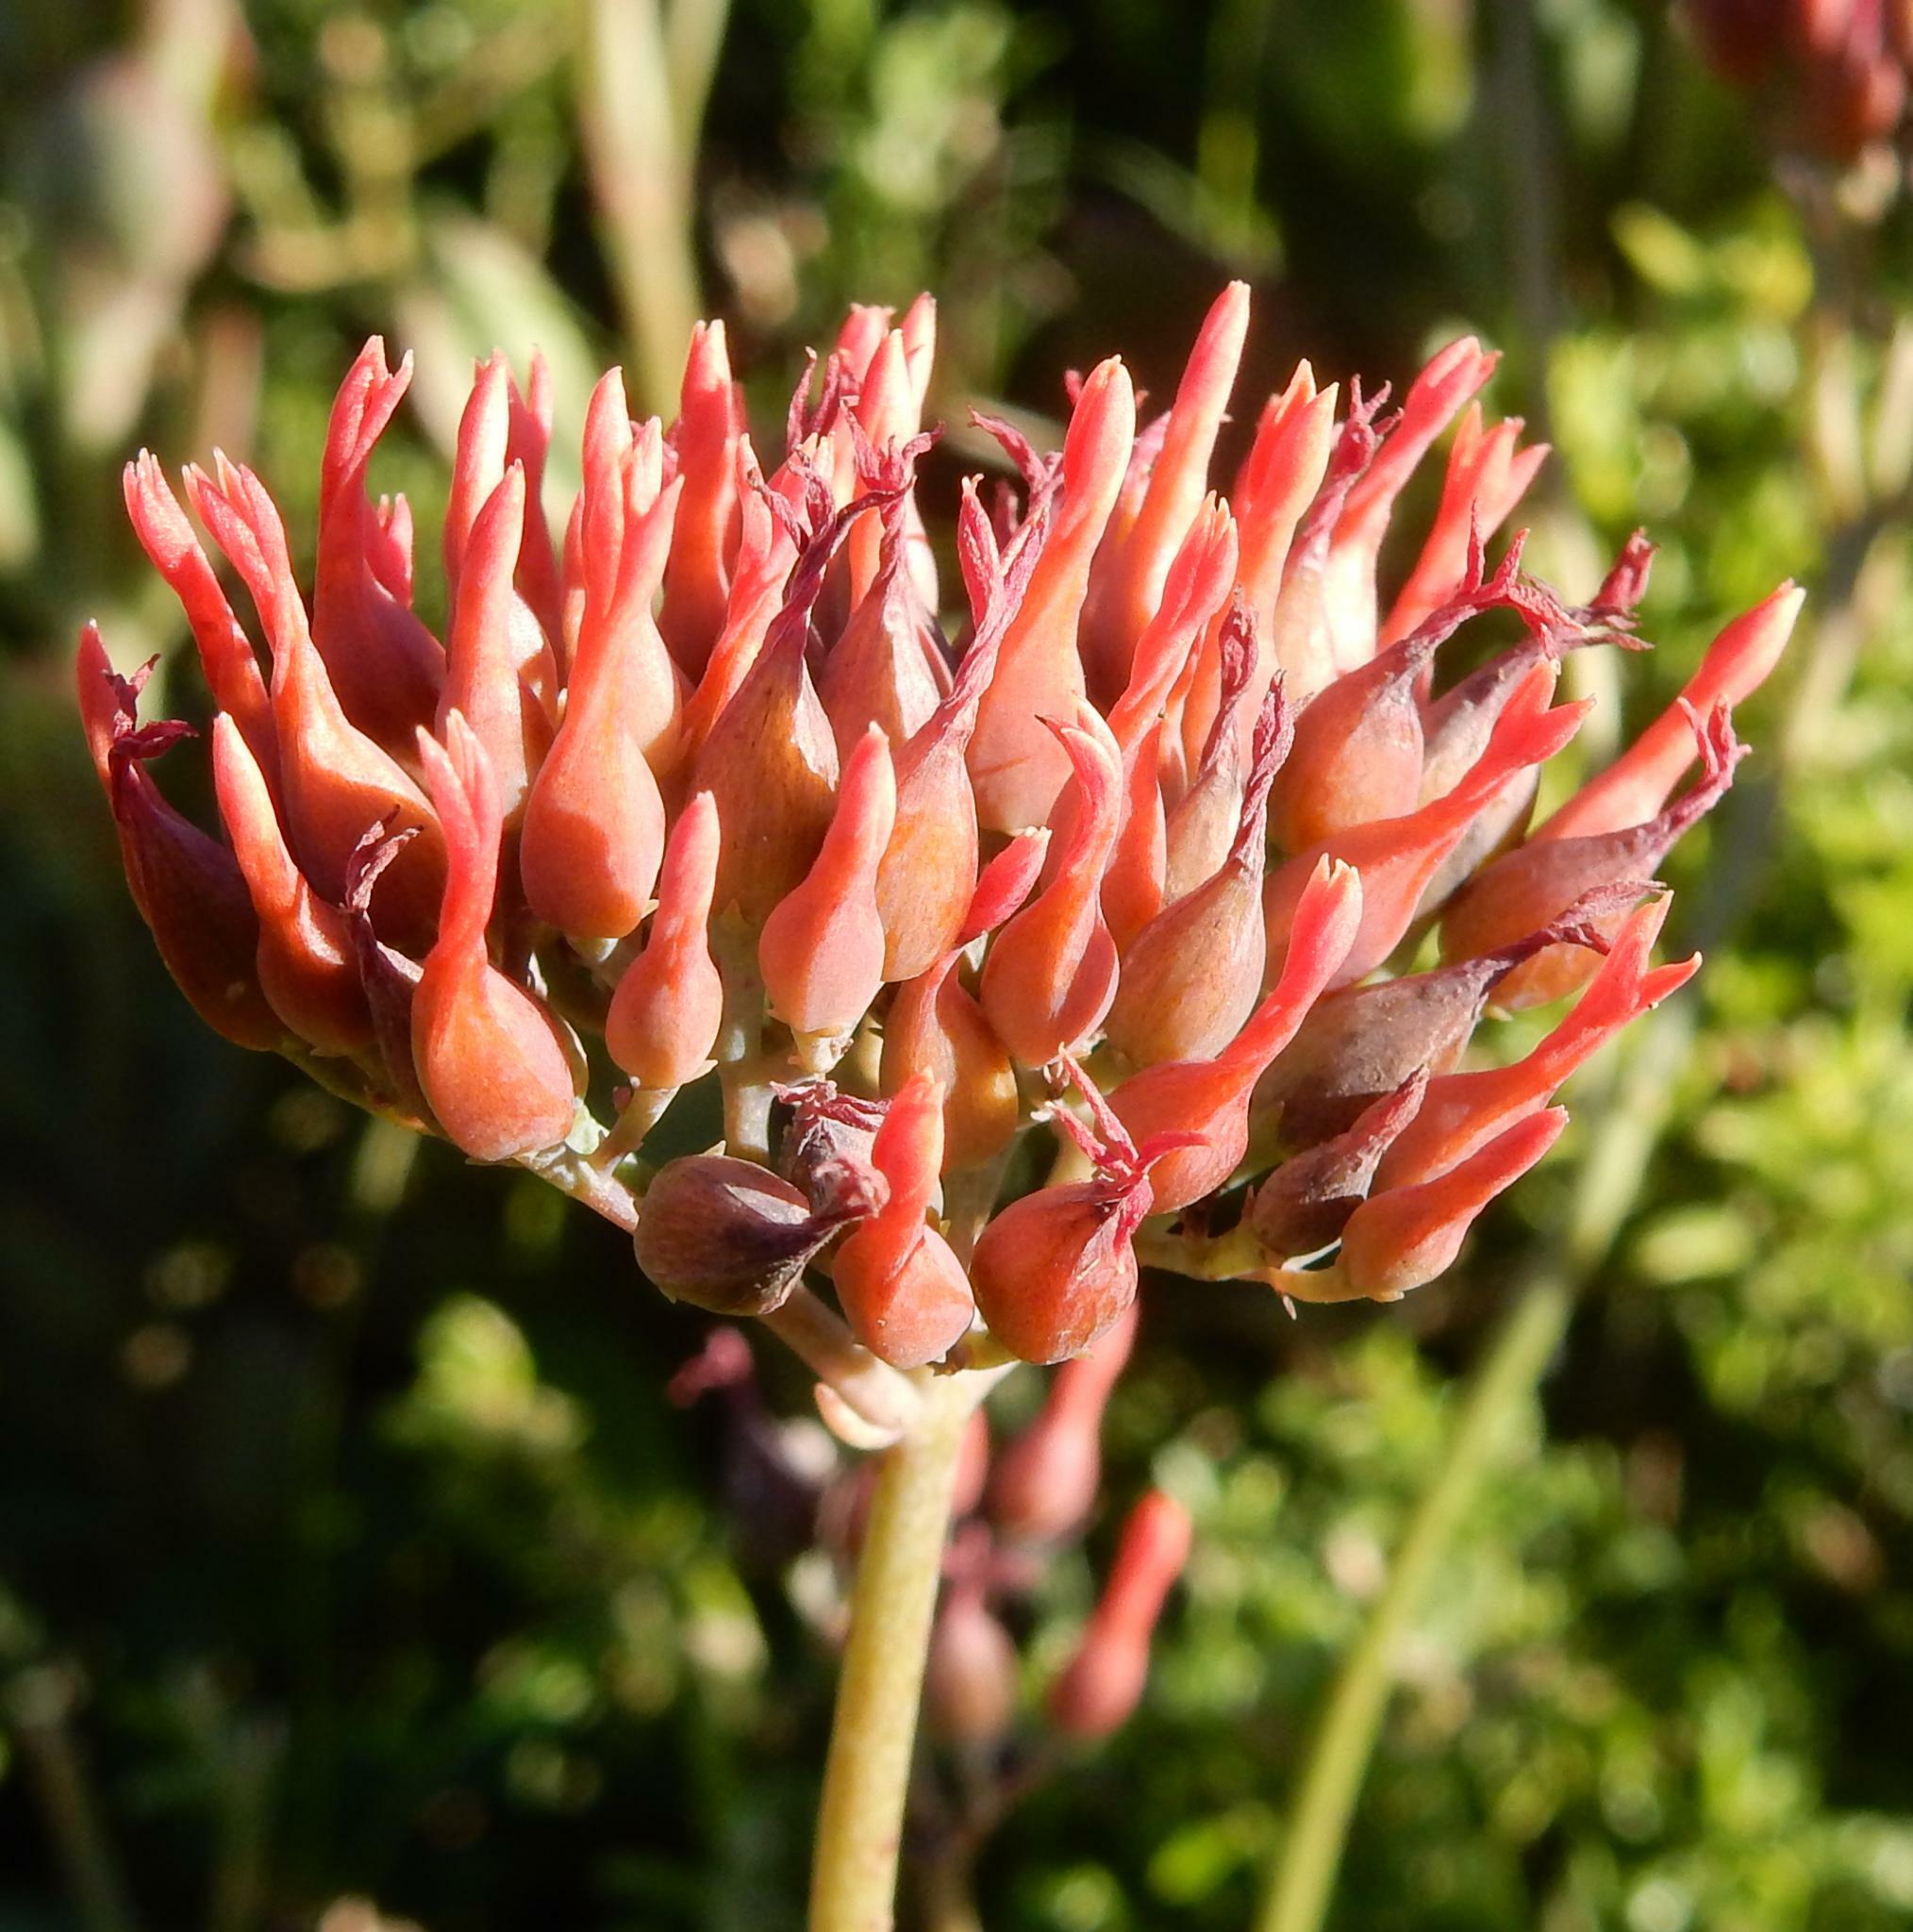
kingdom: Plantae
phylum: Tracheophyta
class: Magnoliopsida
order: Saxifragales
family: Crassulaceae
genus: Kalanchoe
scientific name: Kalanchoe rotundifolia
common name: Common kalanchoe
